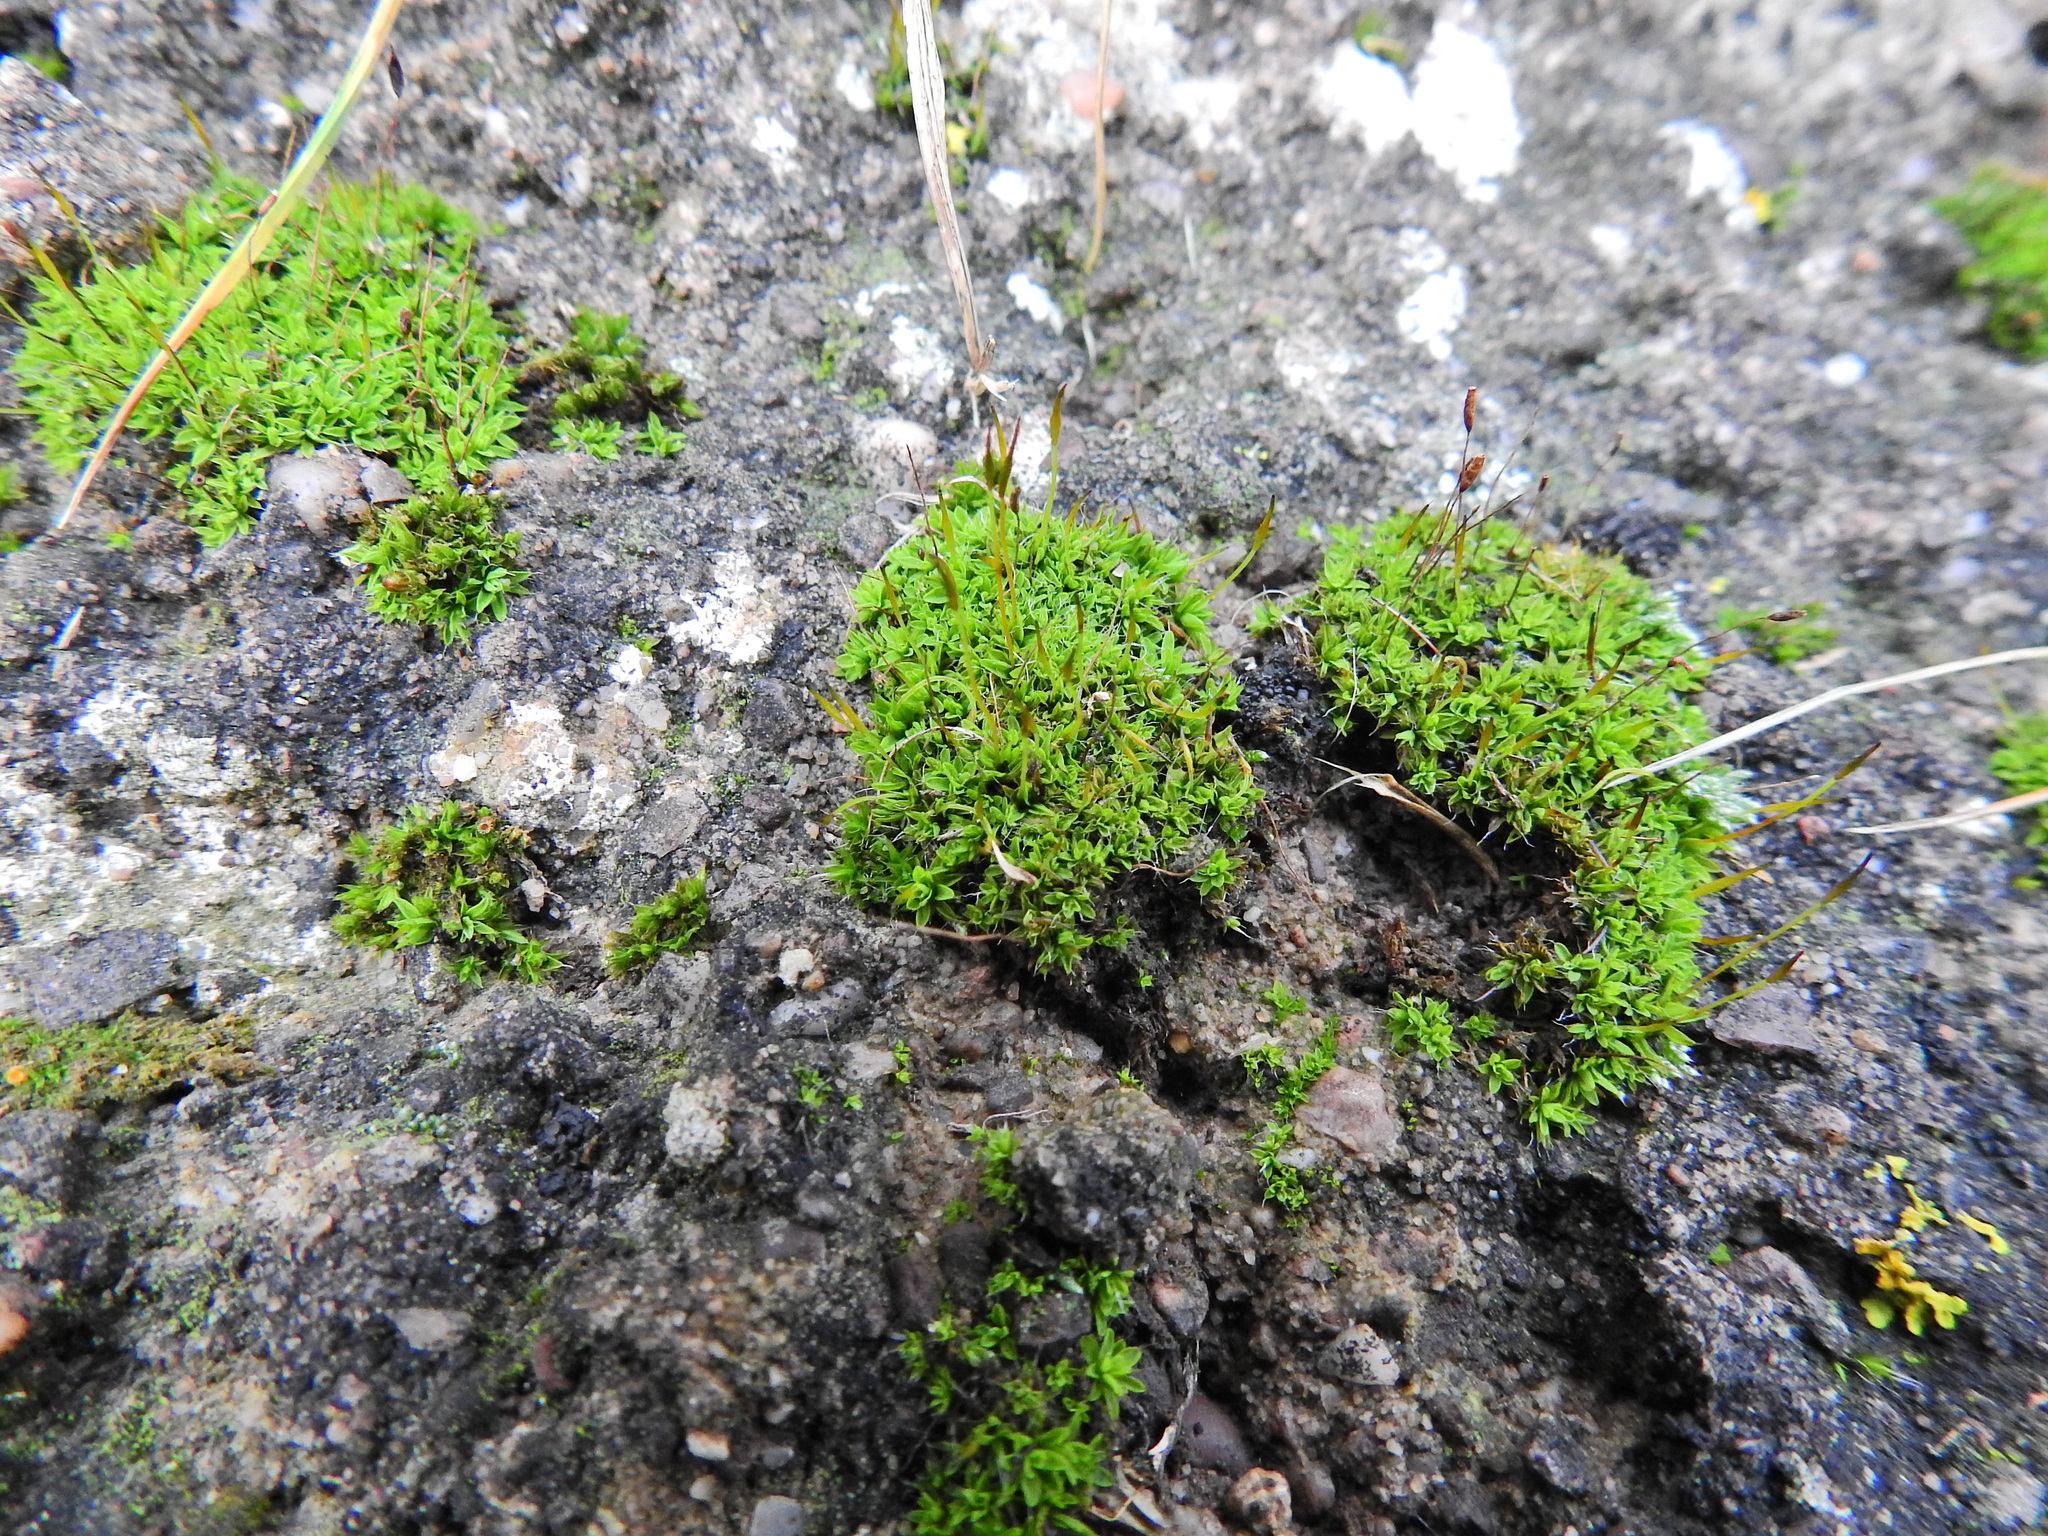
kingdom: Plantae
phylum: Bryophyta
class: Bryopsida
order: Pottiales
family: Pottiaceae
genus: Tortula
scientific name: Tortula muralis
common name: Wall screw-moss
